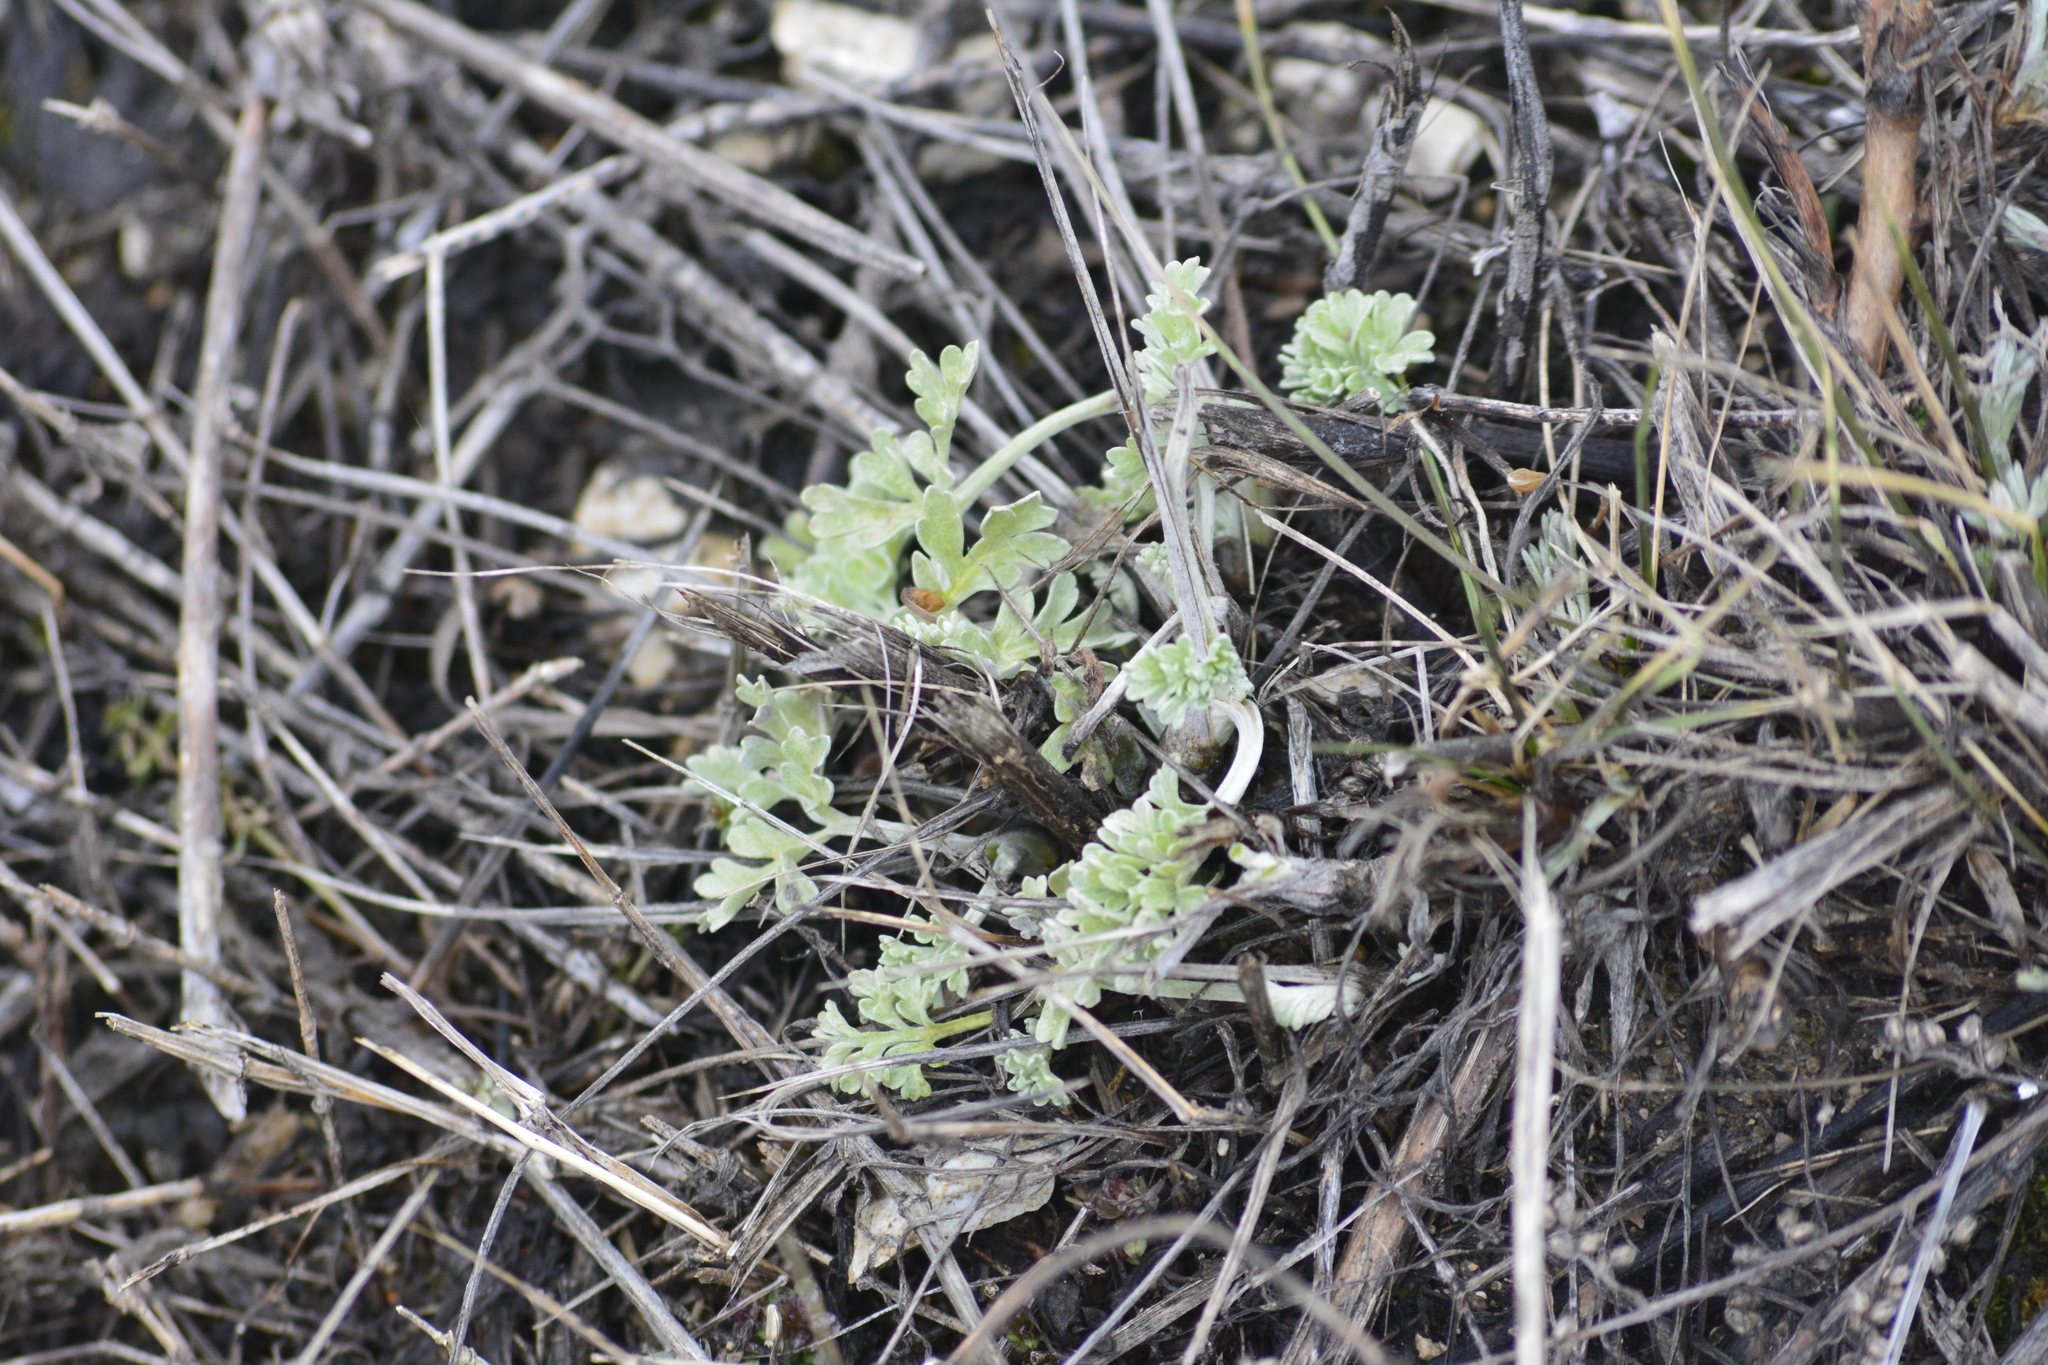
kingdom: Plantae
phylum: Tracheophyta
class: Magnoliopsida
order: Asterales
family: Asteraceae
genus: Artemisia
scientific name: Artemisia absinthium
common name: Wormwood
